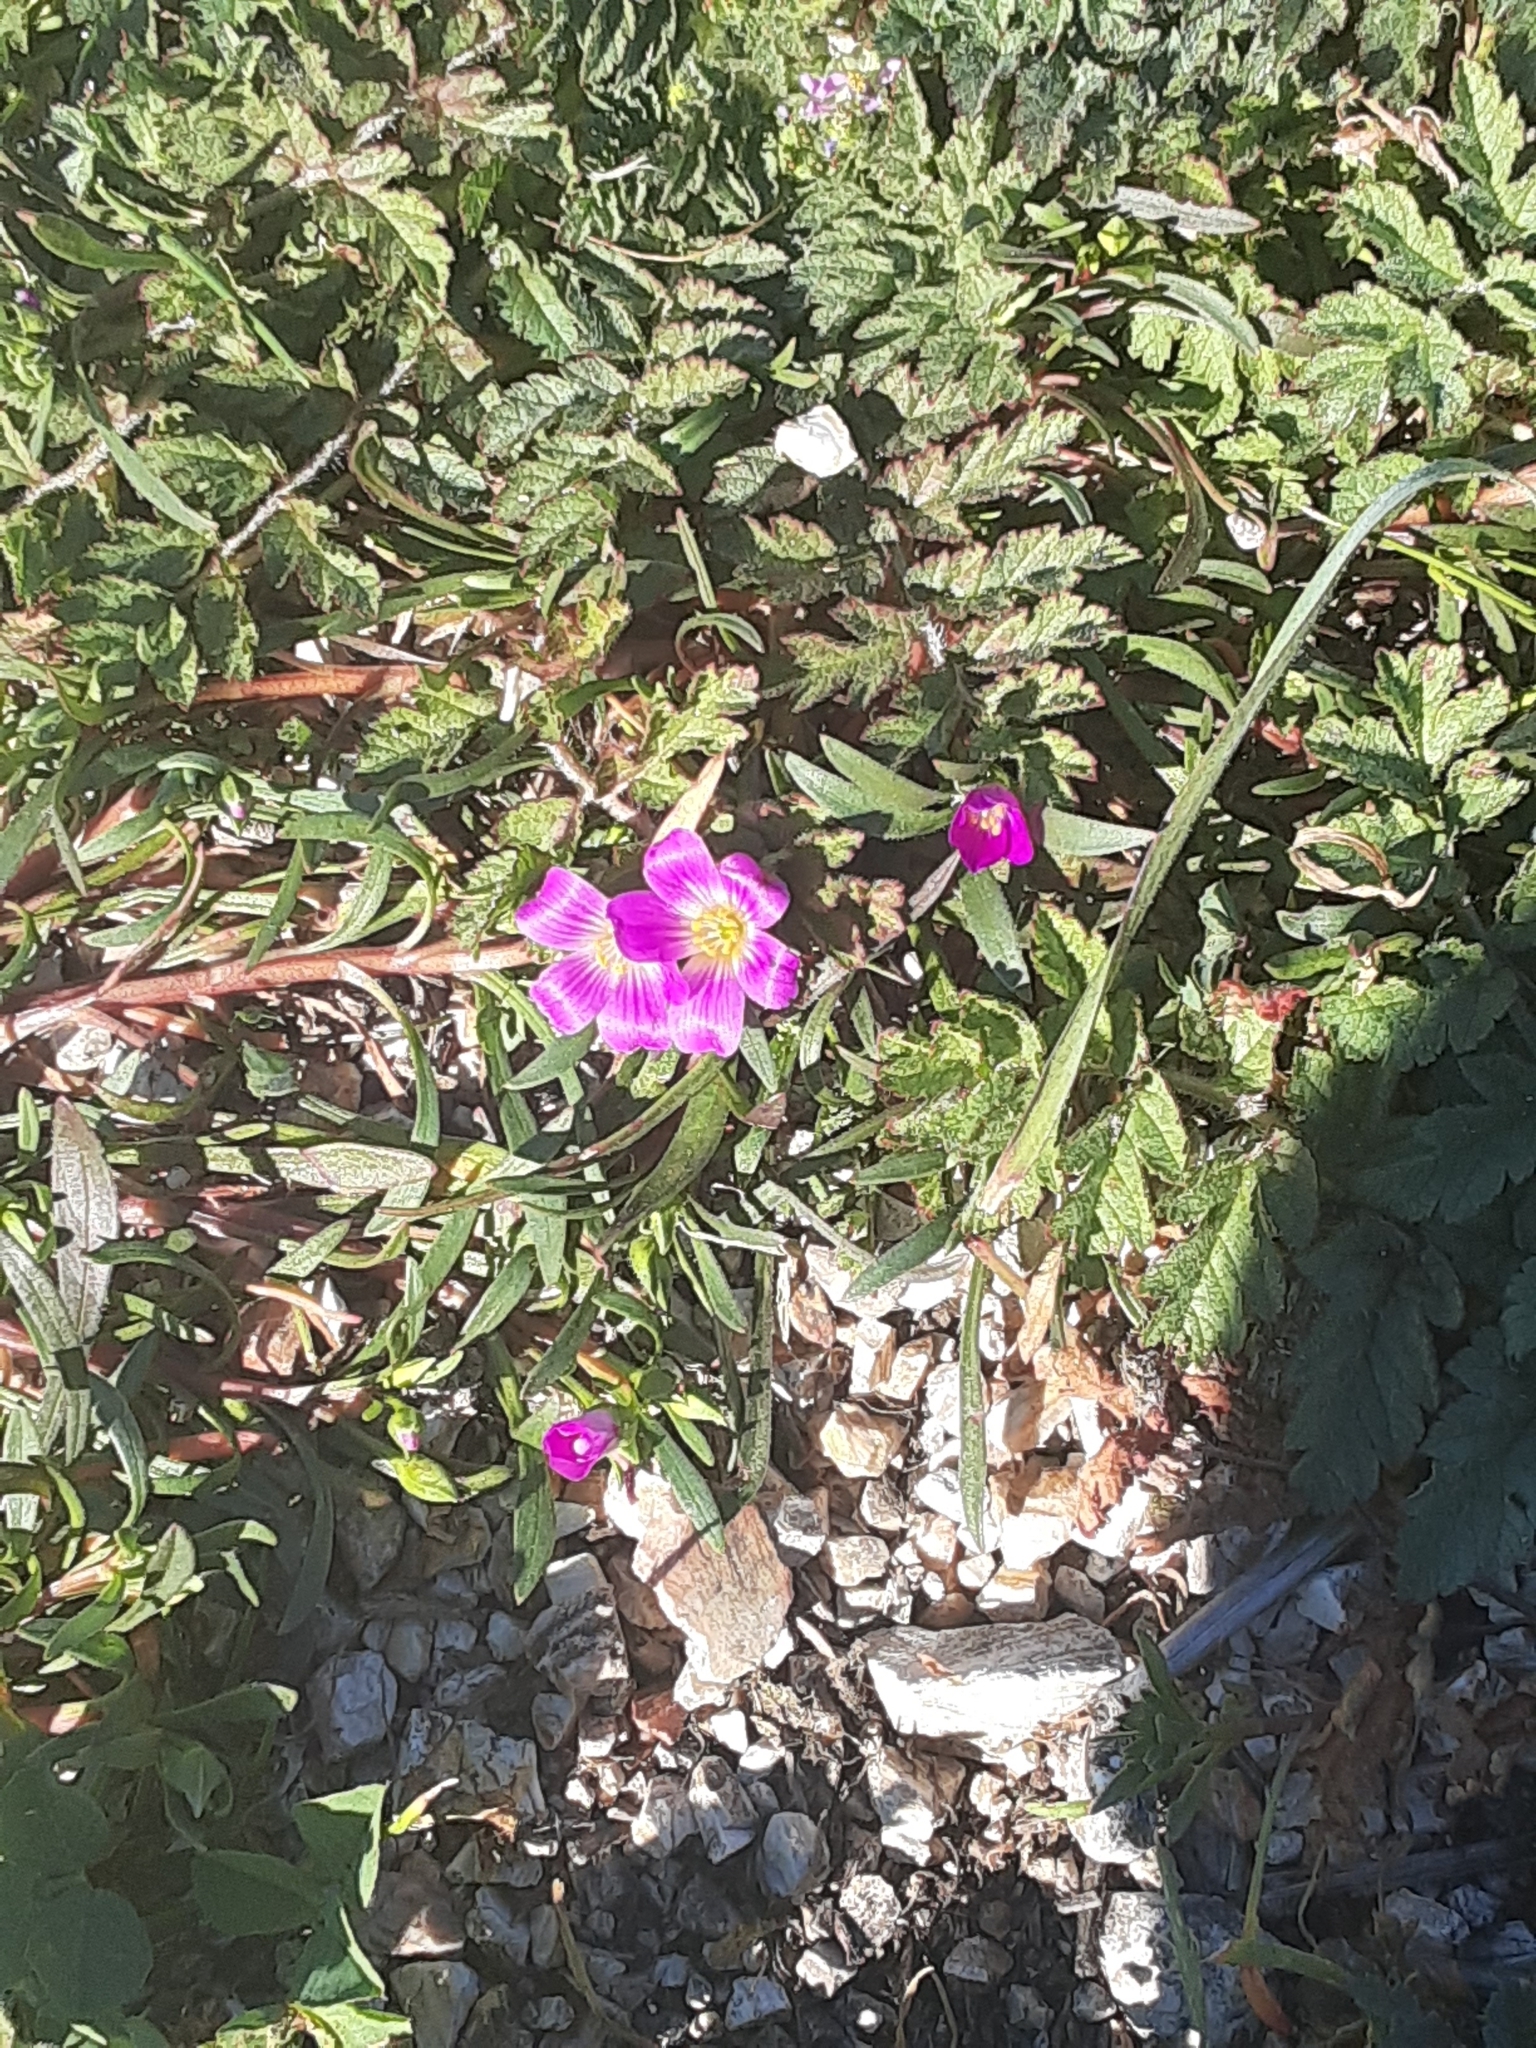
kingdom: Plantae
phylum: Tracheophyta
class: Magnoliopsida
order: Caryophyllales
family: Montiaceae
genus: Calandrinia
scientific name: Calandrinia menziesii
